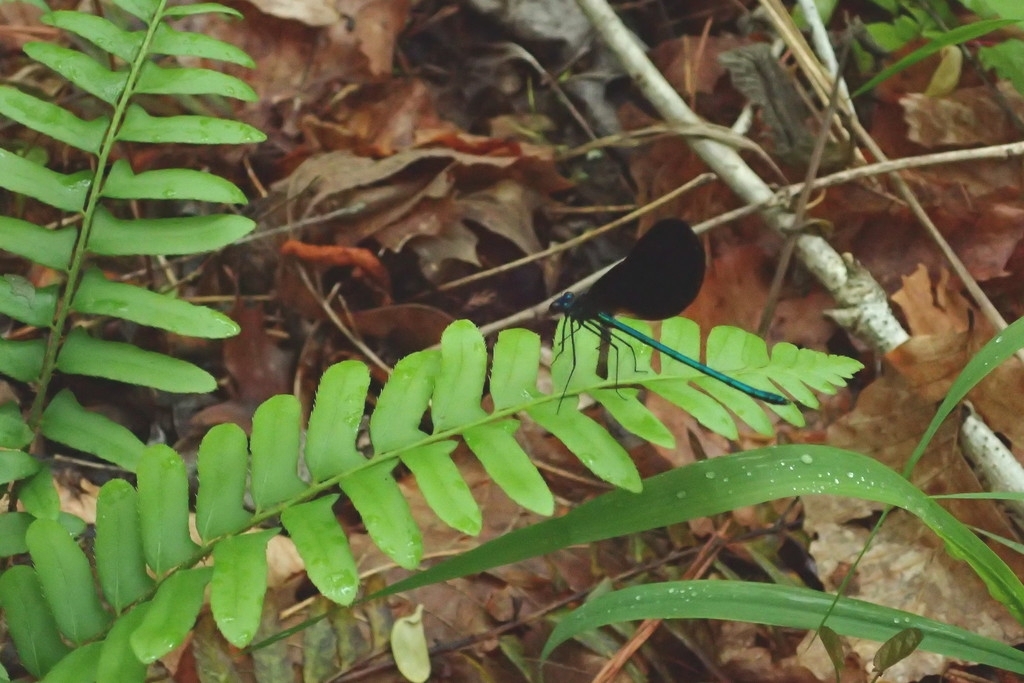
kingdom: Animalia
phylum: Arthropoda
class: Insecta
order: Odonata
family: Calopterygidae
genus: Calopteryx
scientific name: Calopteryx maculata
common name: Ebony jewelwing
